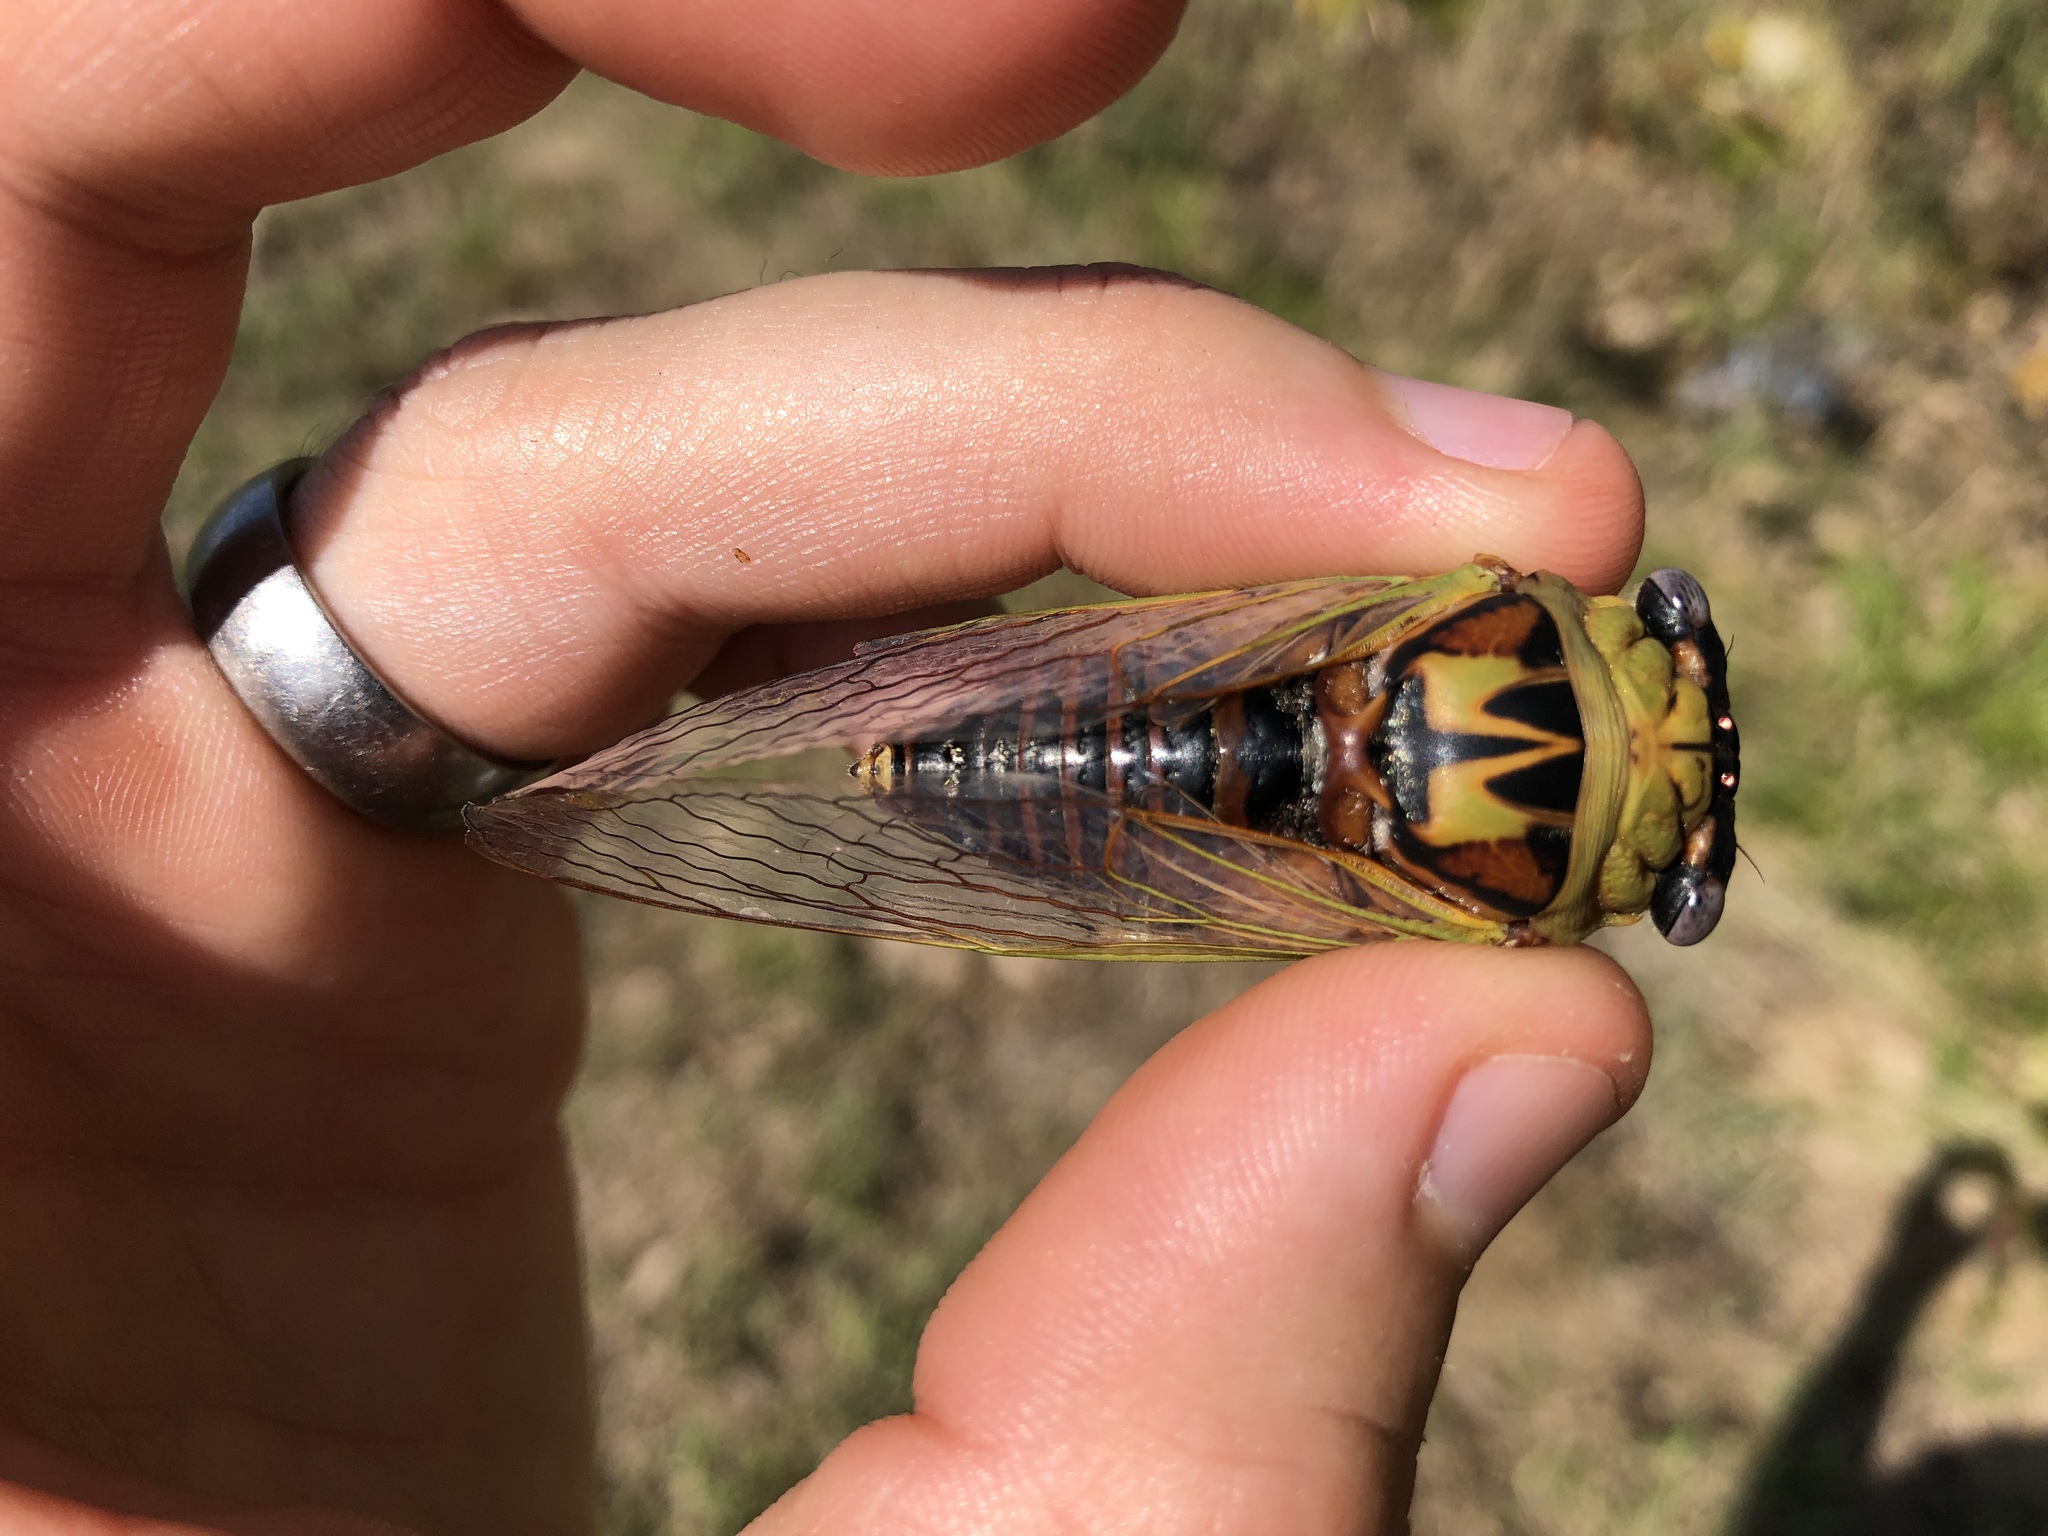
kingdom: Animalia
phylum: Arthropoda
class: Insecta
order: Hemiptera
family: Cicadidae
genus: Megatibicen
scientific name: Megatibicen pronotalis
